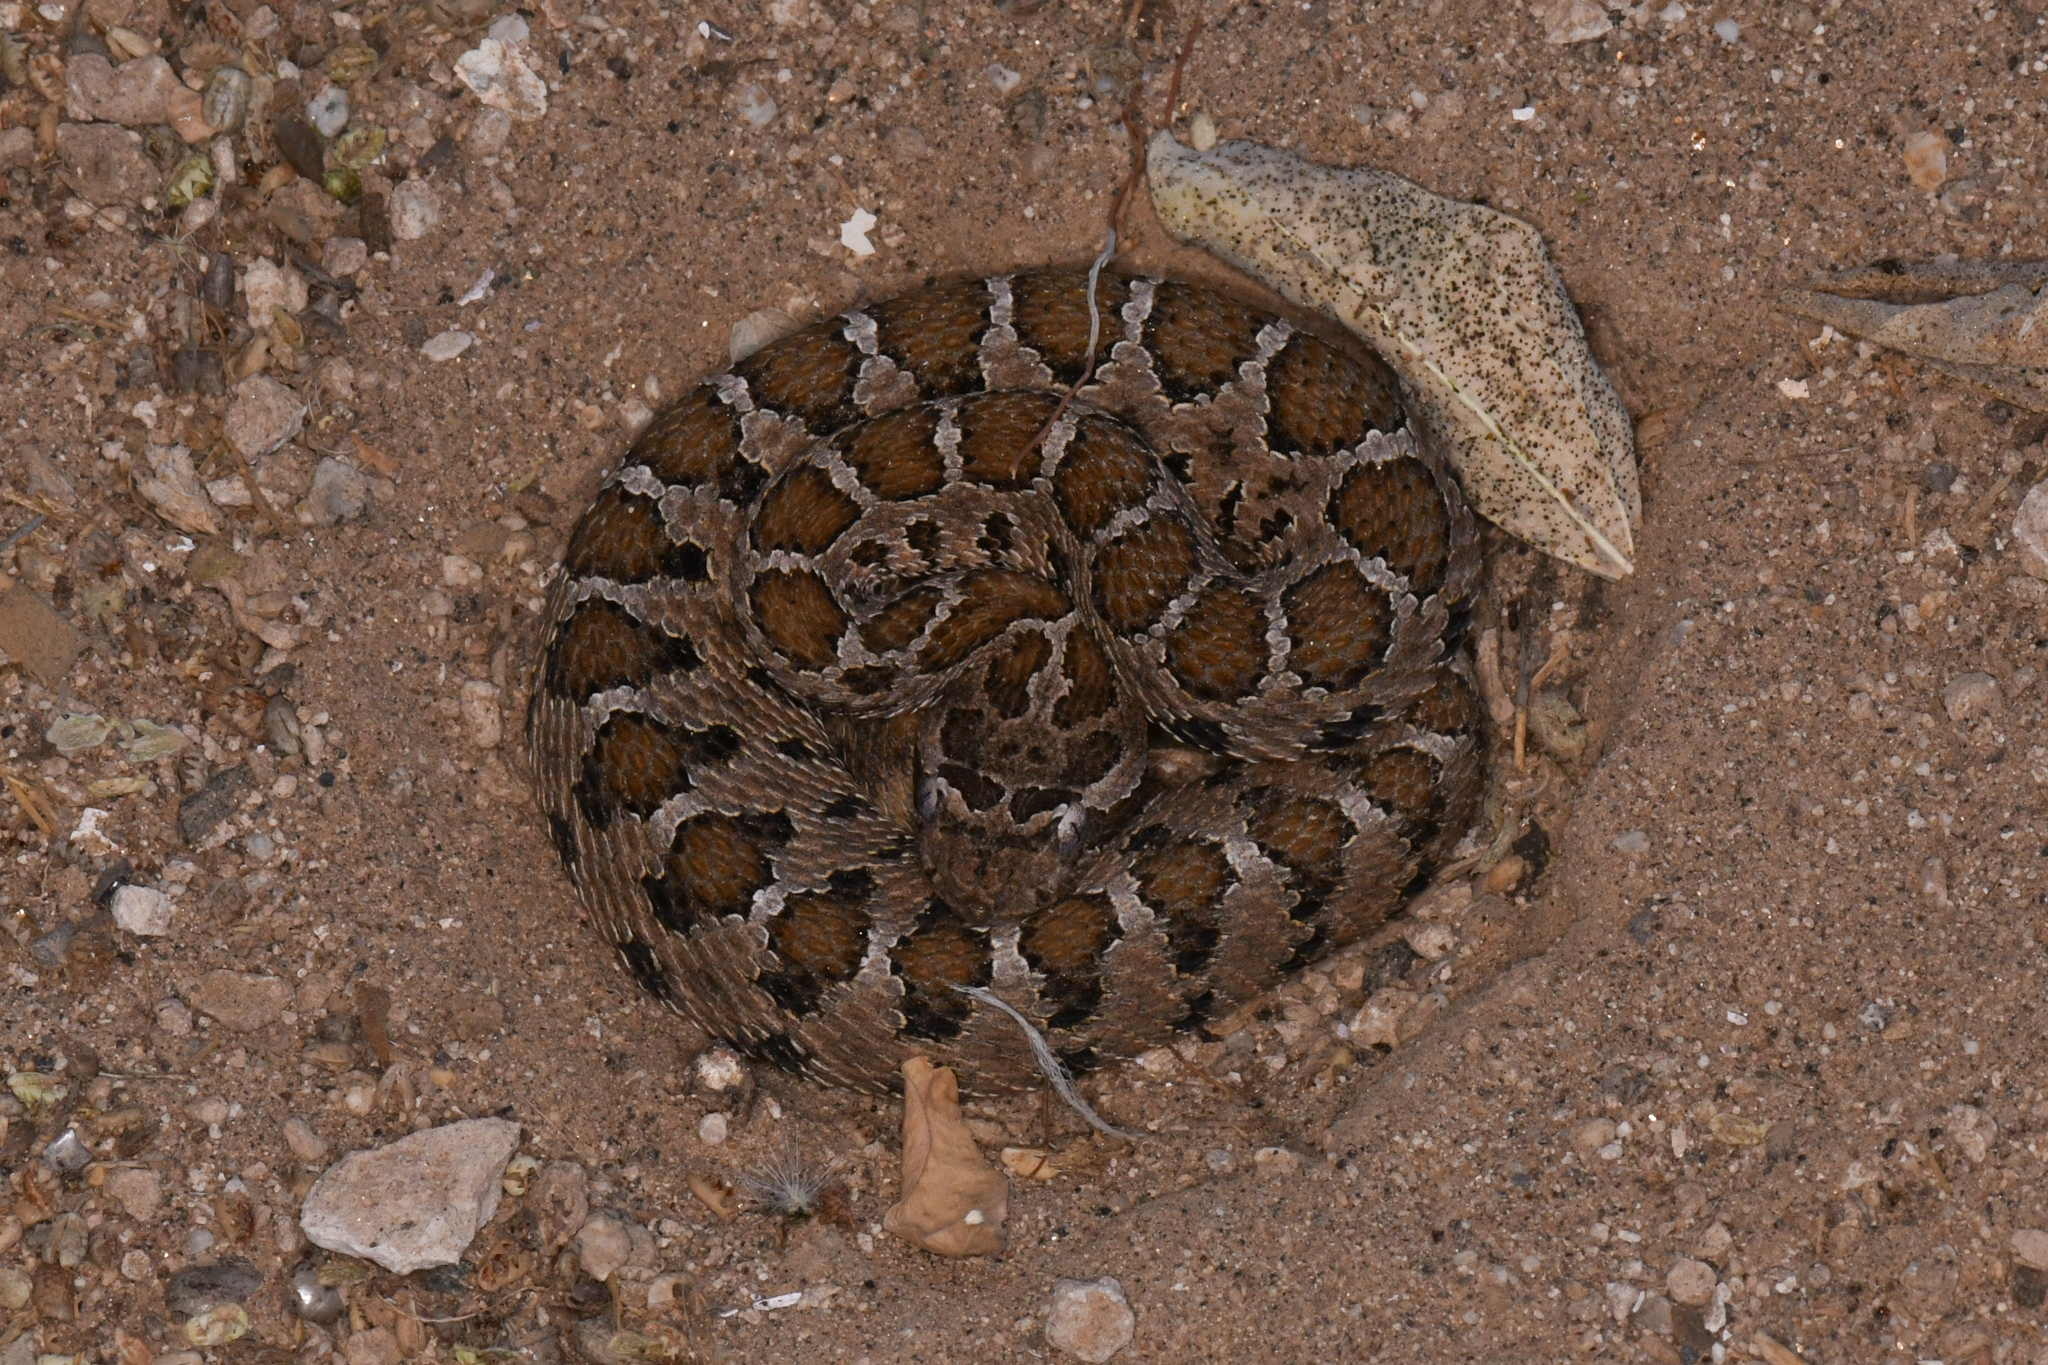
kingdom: Animalia
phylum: Chordata
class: Squamata
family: Viperidae
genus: Crotalus
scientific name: Crotalus enyo
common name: Lower california rattlesnake
